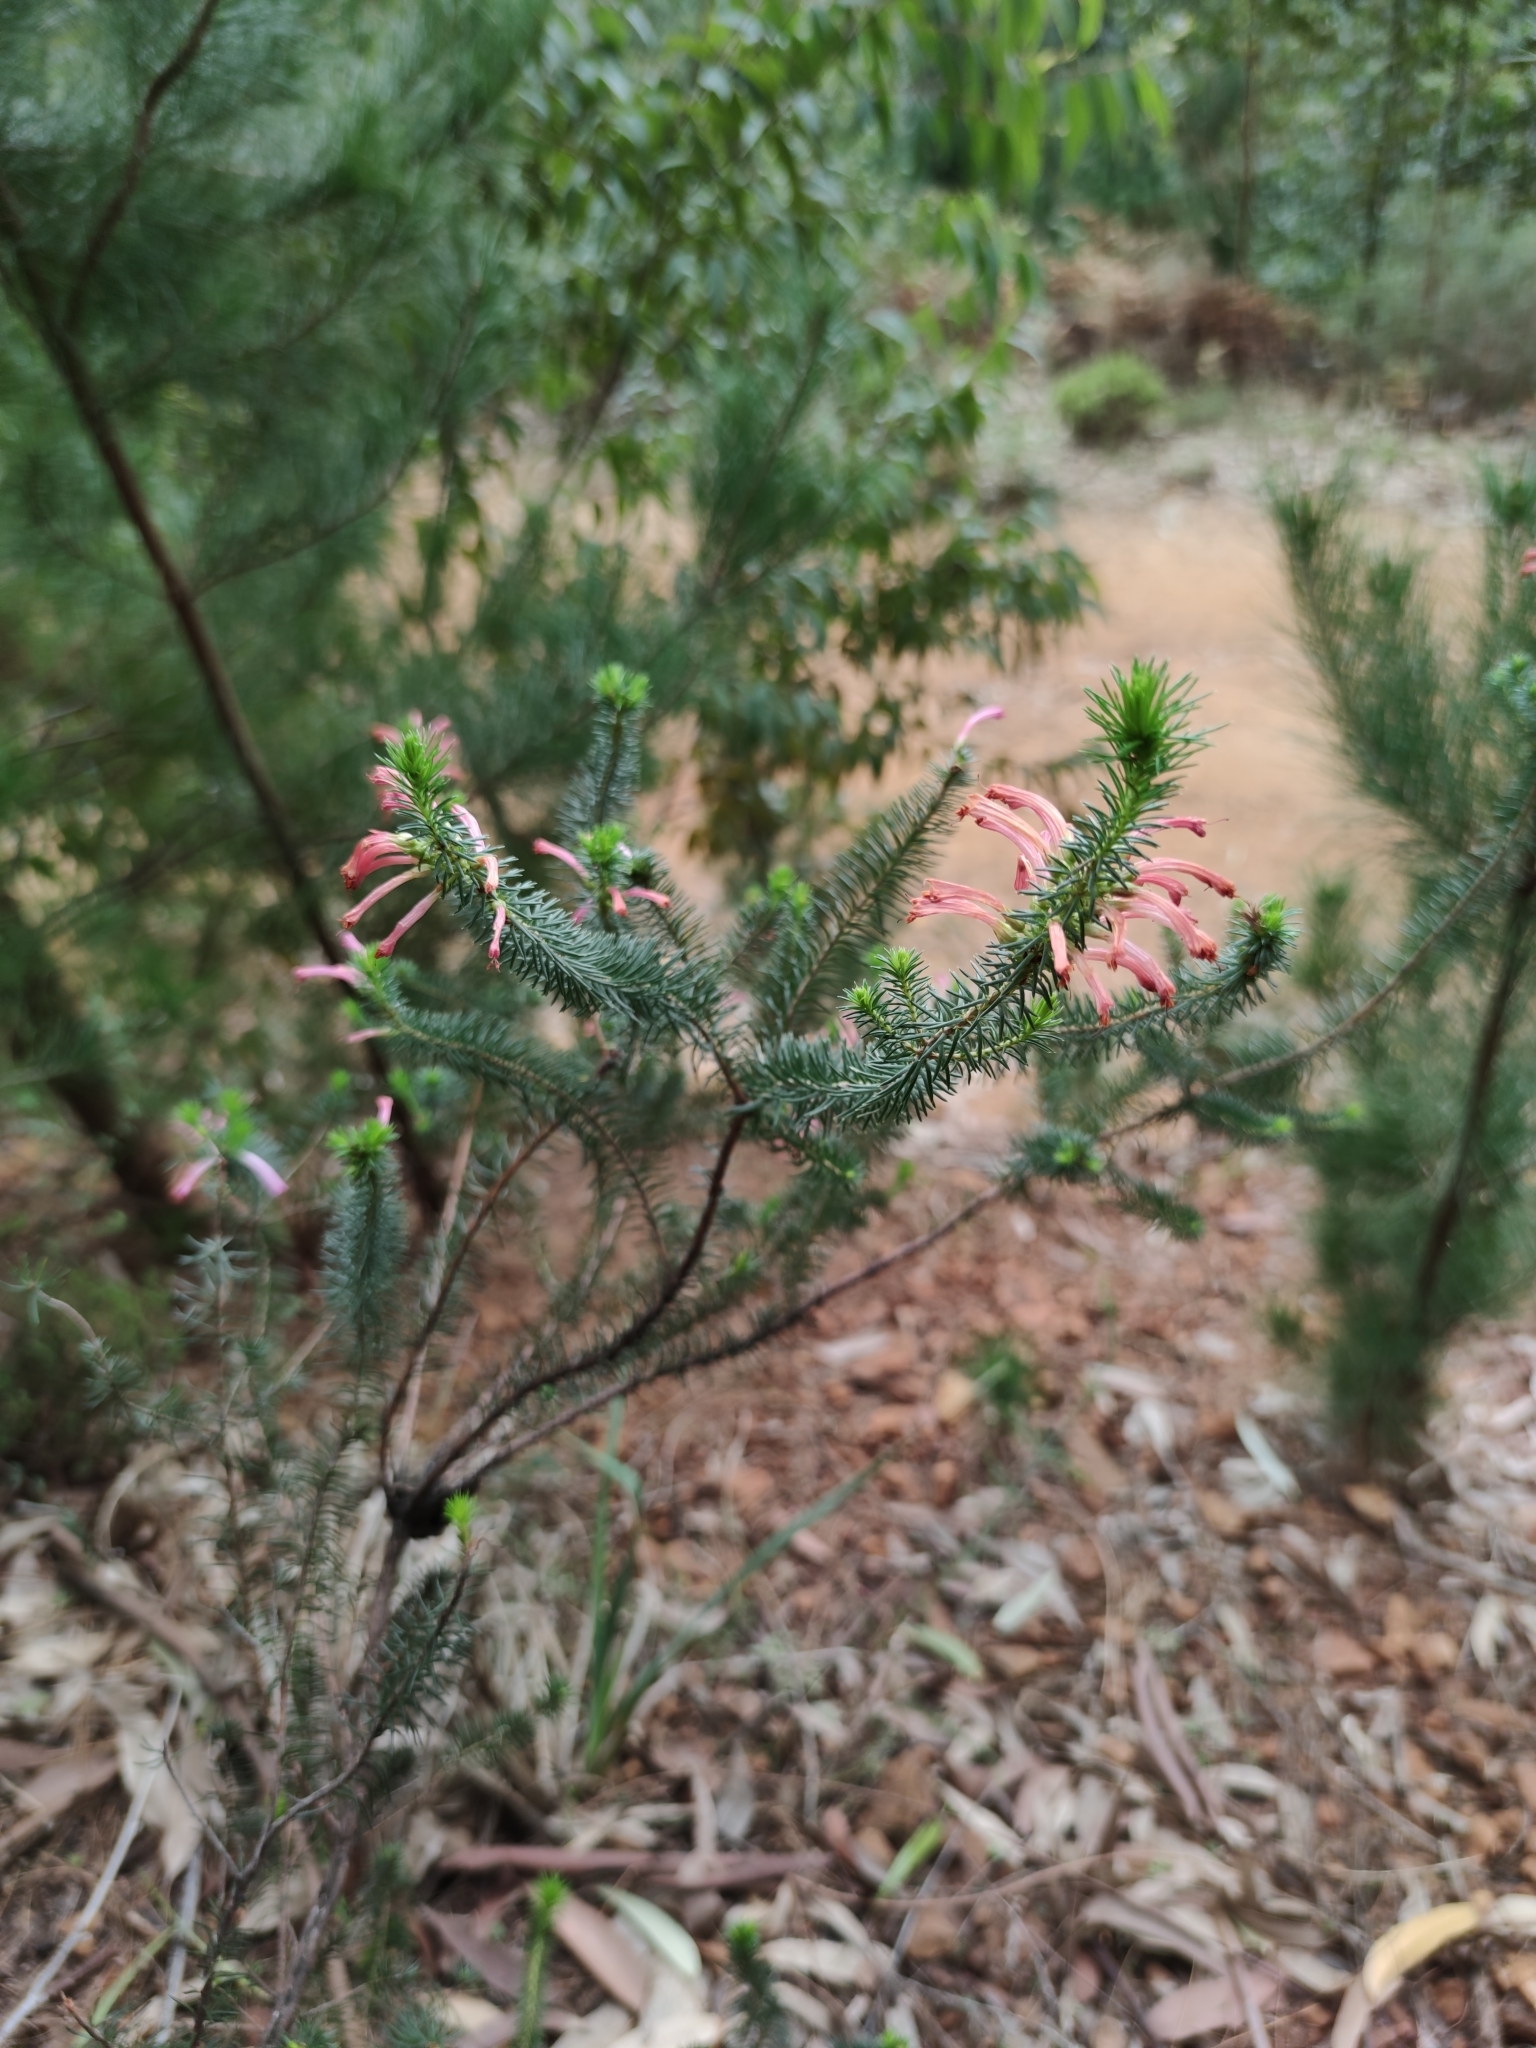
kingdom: Plantae
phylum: Tracheophyta
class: Magnoliopsida
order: Ericales
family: Ericaceae
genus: Erica
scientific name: Erica abietina
